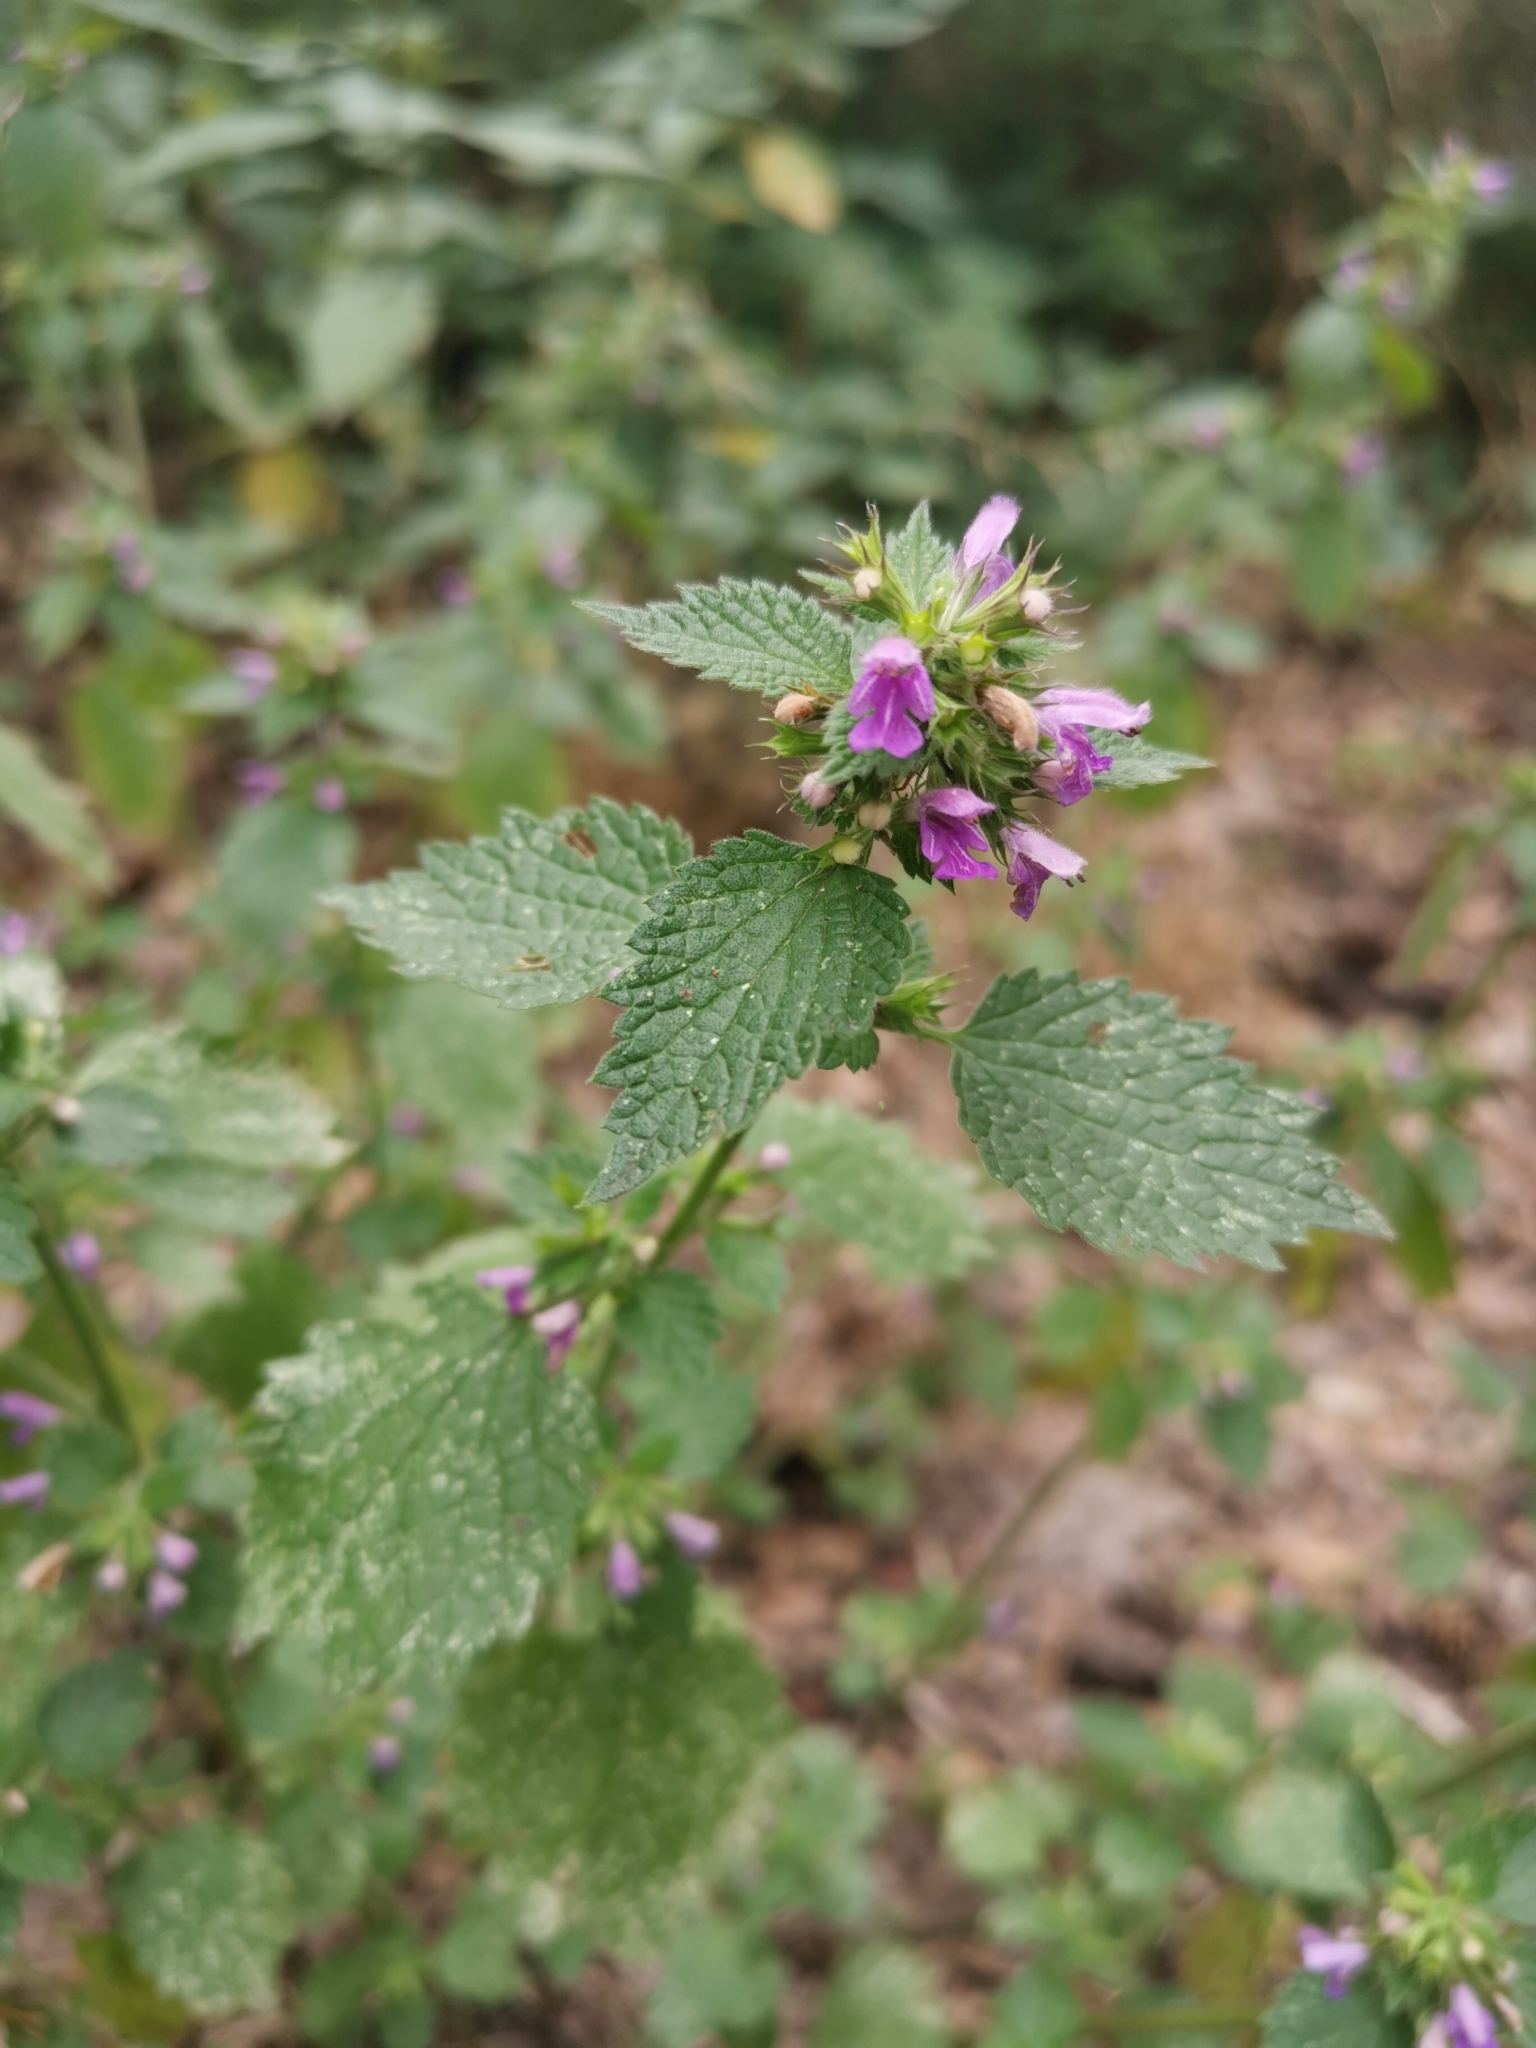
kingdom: Plantae
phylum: Tracheophyta
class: Magnoliopsida
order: Lamiales
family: Lamiaceae
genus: Ballota
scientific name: Ballota nigra
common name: Black horehound
